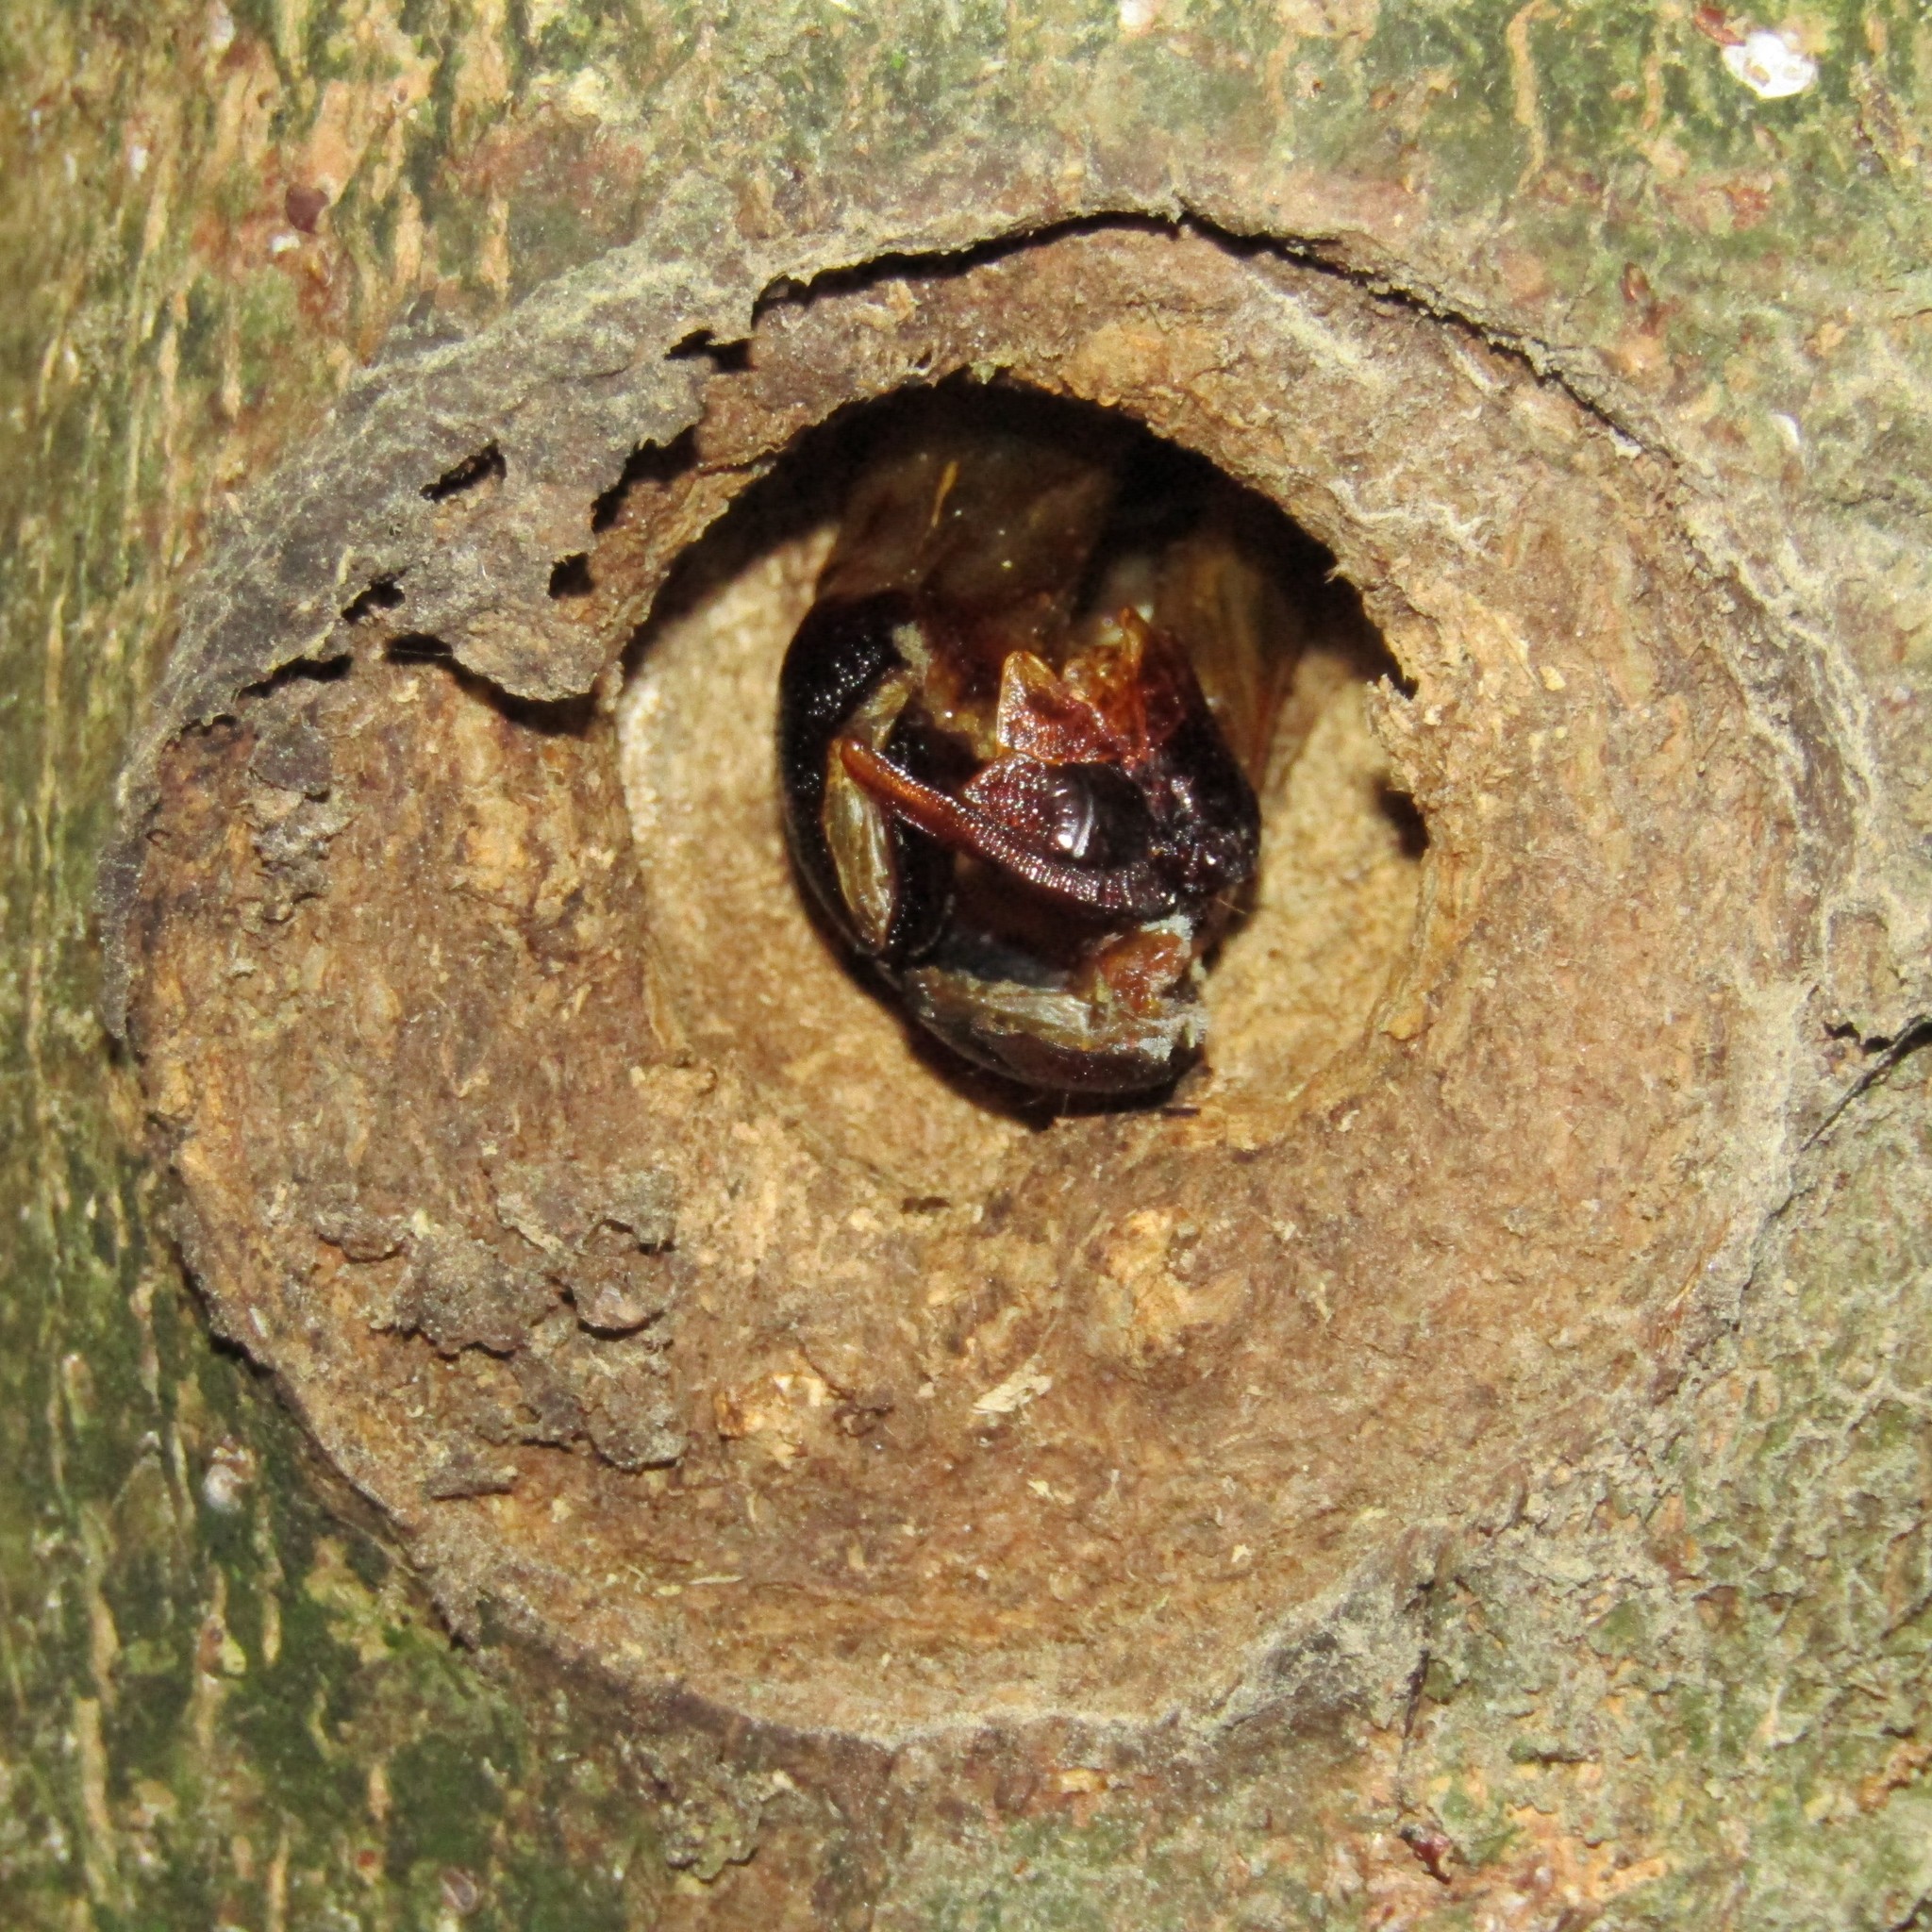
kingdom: Animalia
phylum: Arthropoda
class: Insecta
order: Lepidoptera
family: Hepialidae
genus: Aenetus
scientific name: Aenetus virescens
